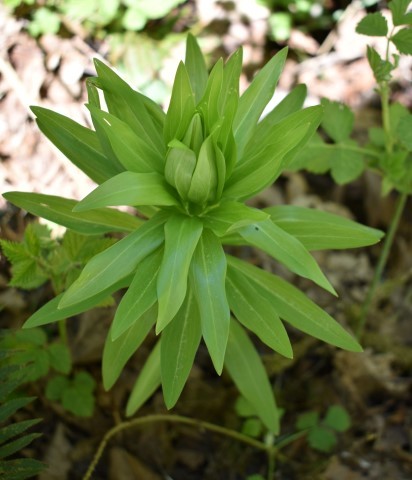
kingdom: Plantae
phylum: Tracheophyta
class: Liliopsida
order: Liliales
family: Liliaceae
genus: Lilium
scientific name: Lilium columbianum
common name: Columbia lily
